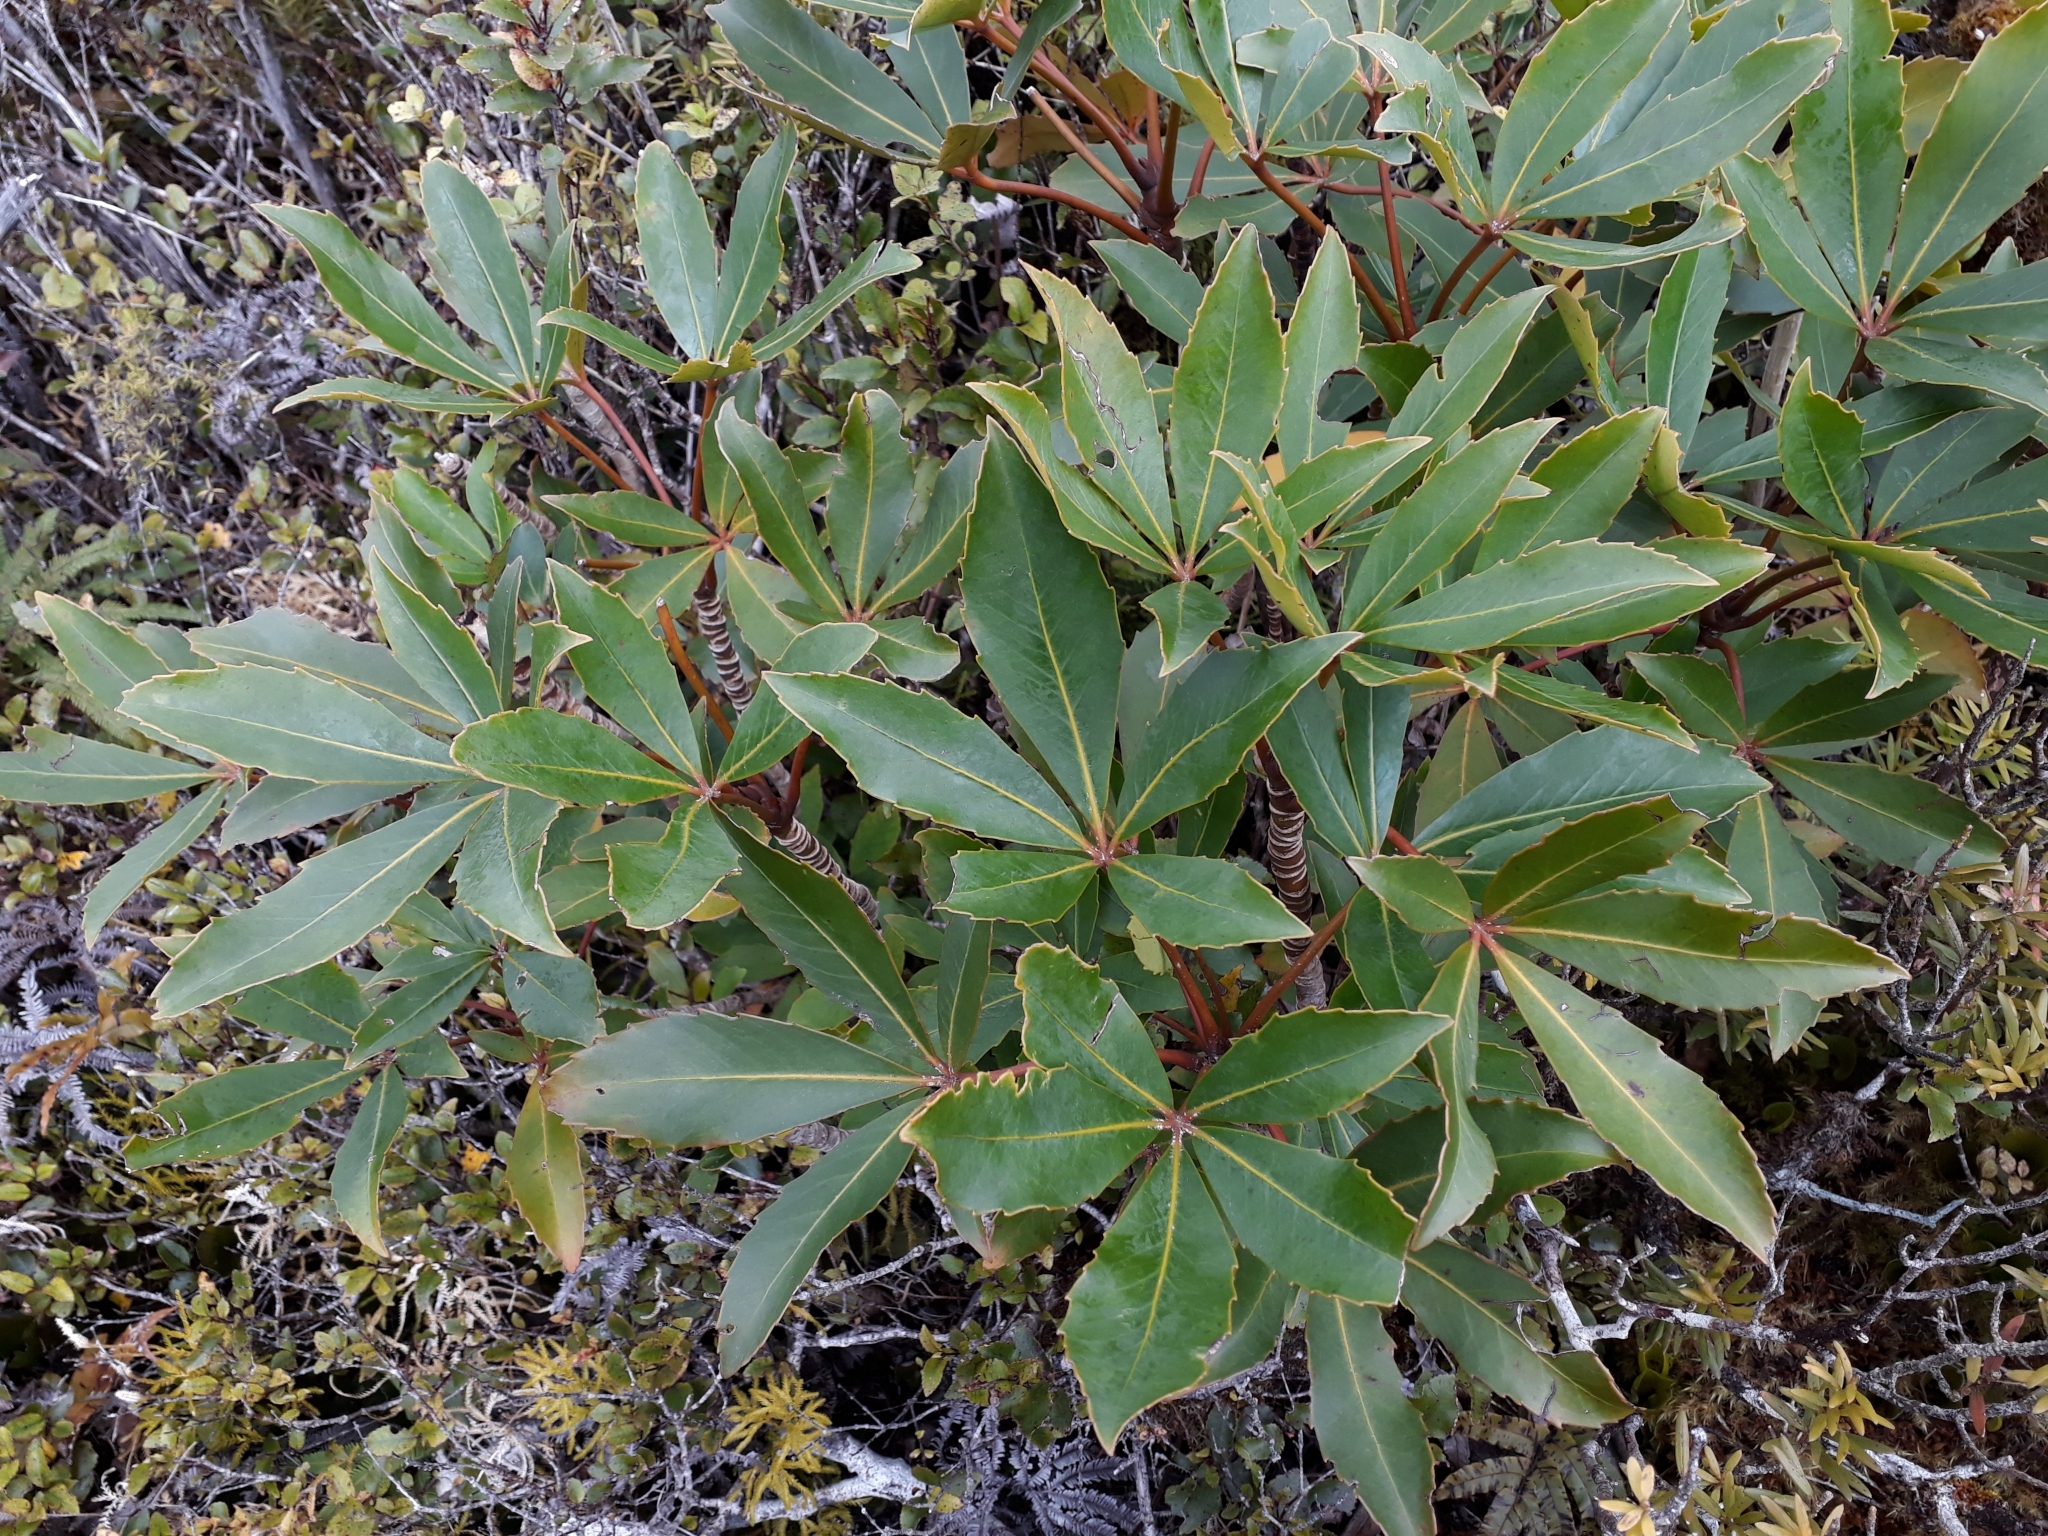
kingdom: Plantae
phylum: Tracheophyta
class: Magnoliopsida
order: Apiales
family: Araliaceae
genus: Neopanax
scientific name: Neopanax colensoi
